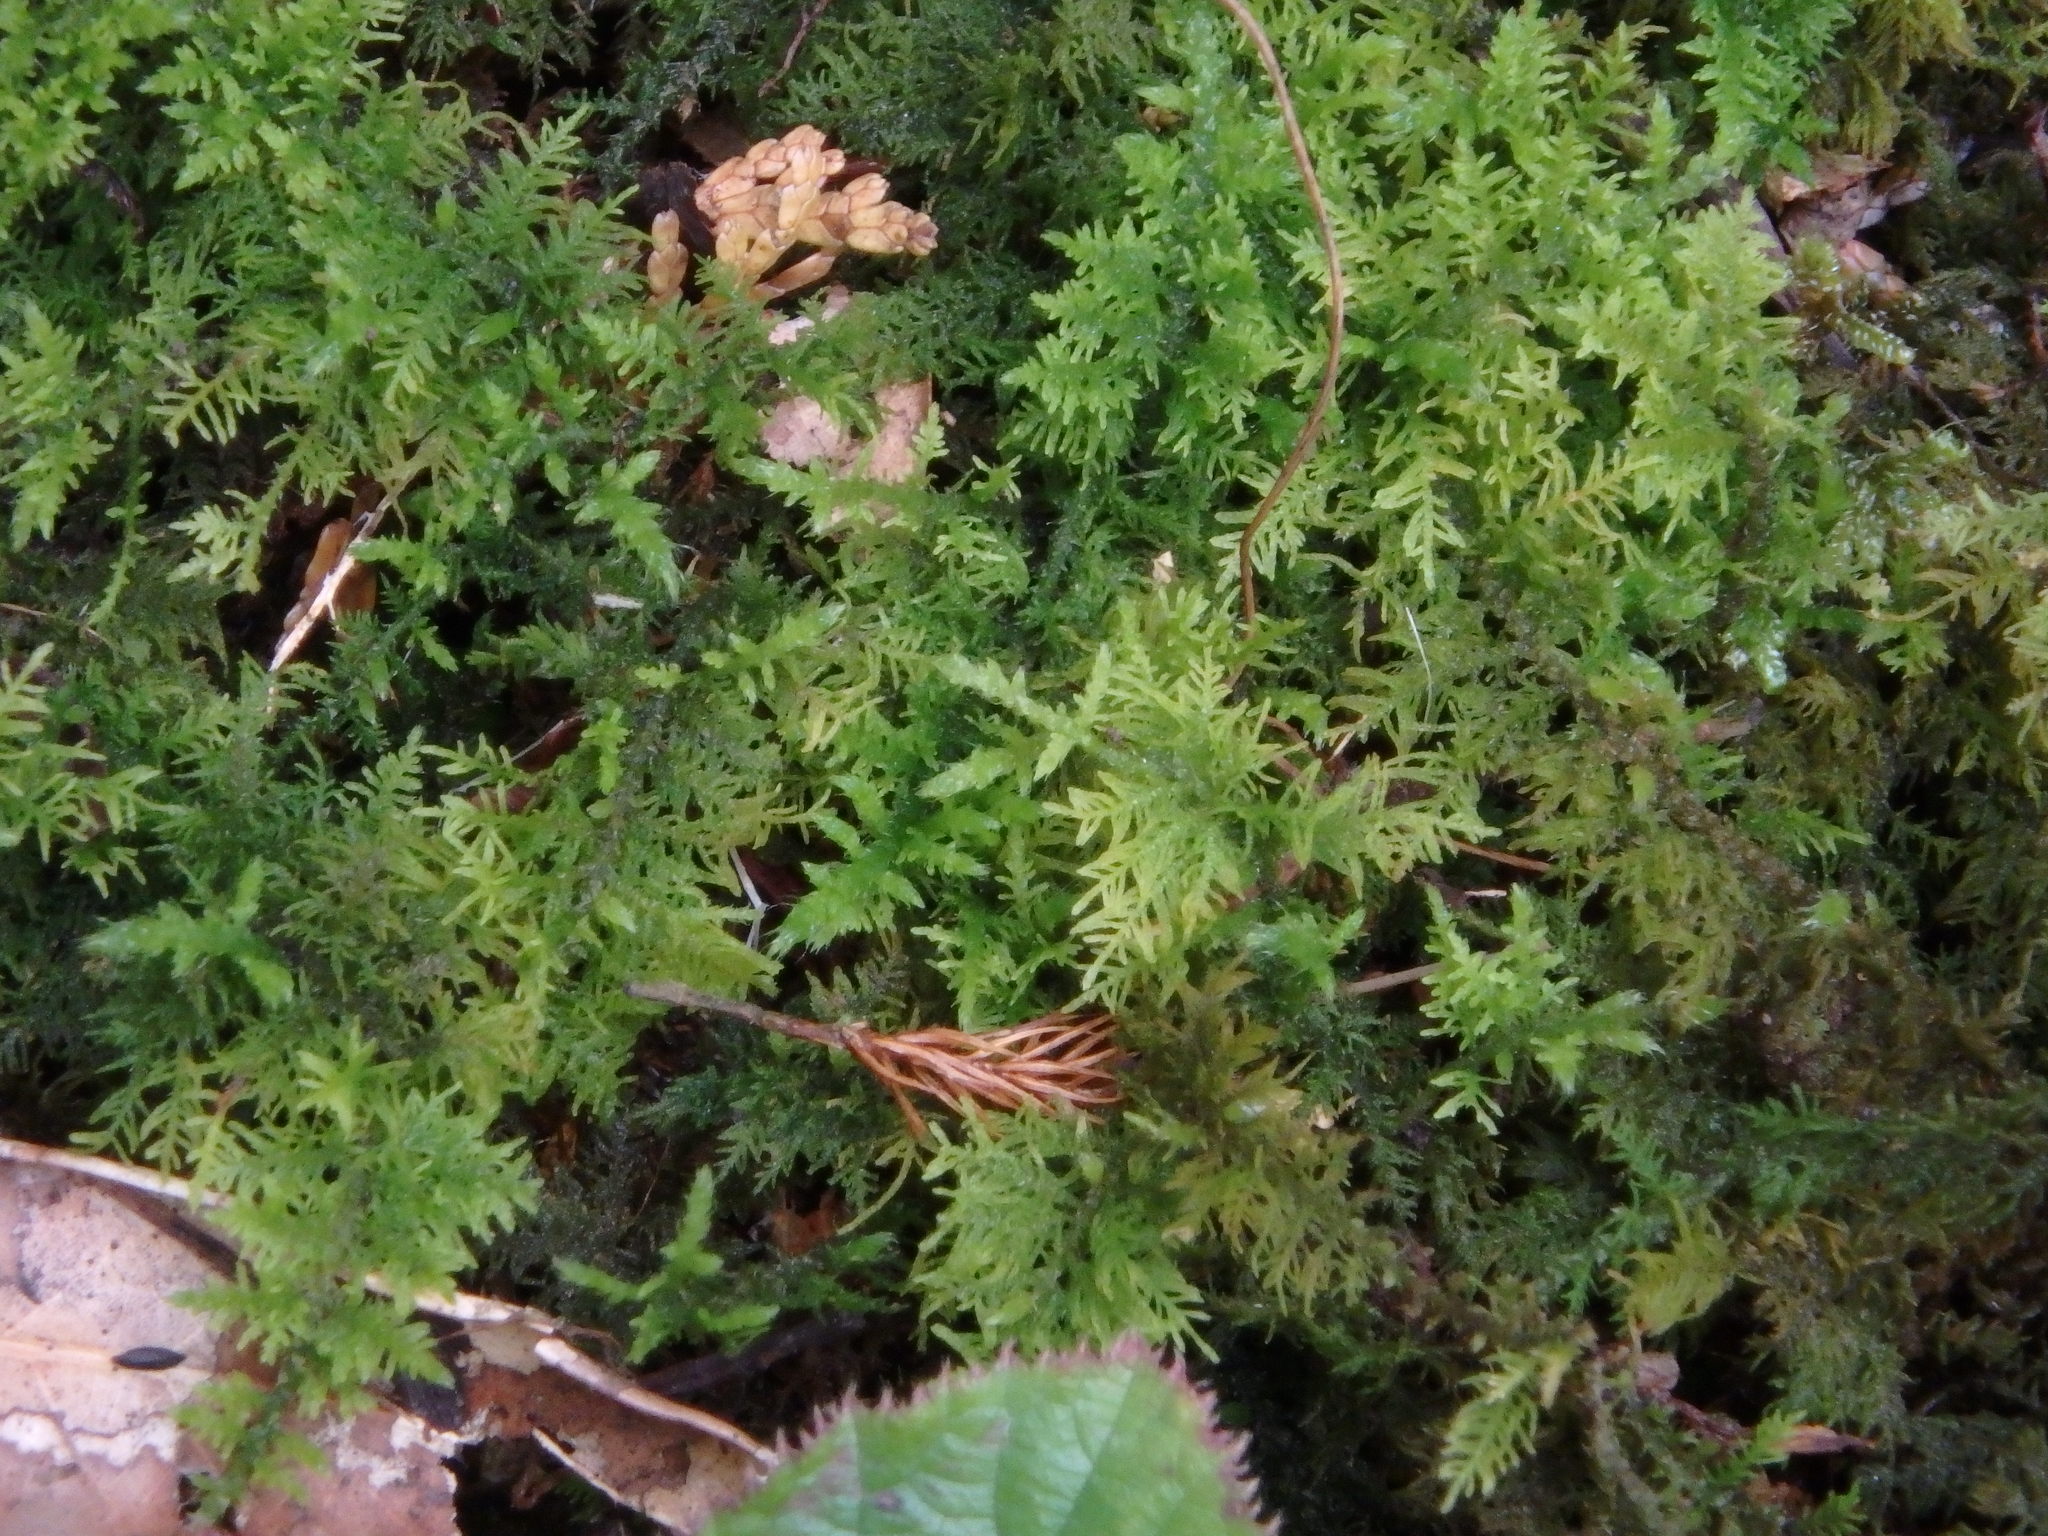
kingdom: Plantae
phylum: Bryophyta
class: Bryopsida
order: Hypnales
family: Hylocomiaceae
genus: Hylocomium
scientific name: Hylocomium splendens
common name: Stairstep moss
